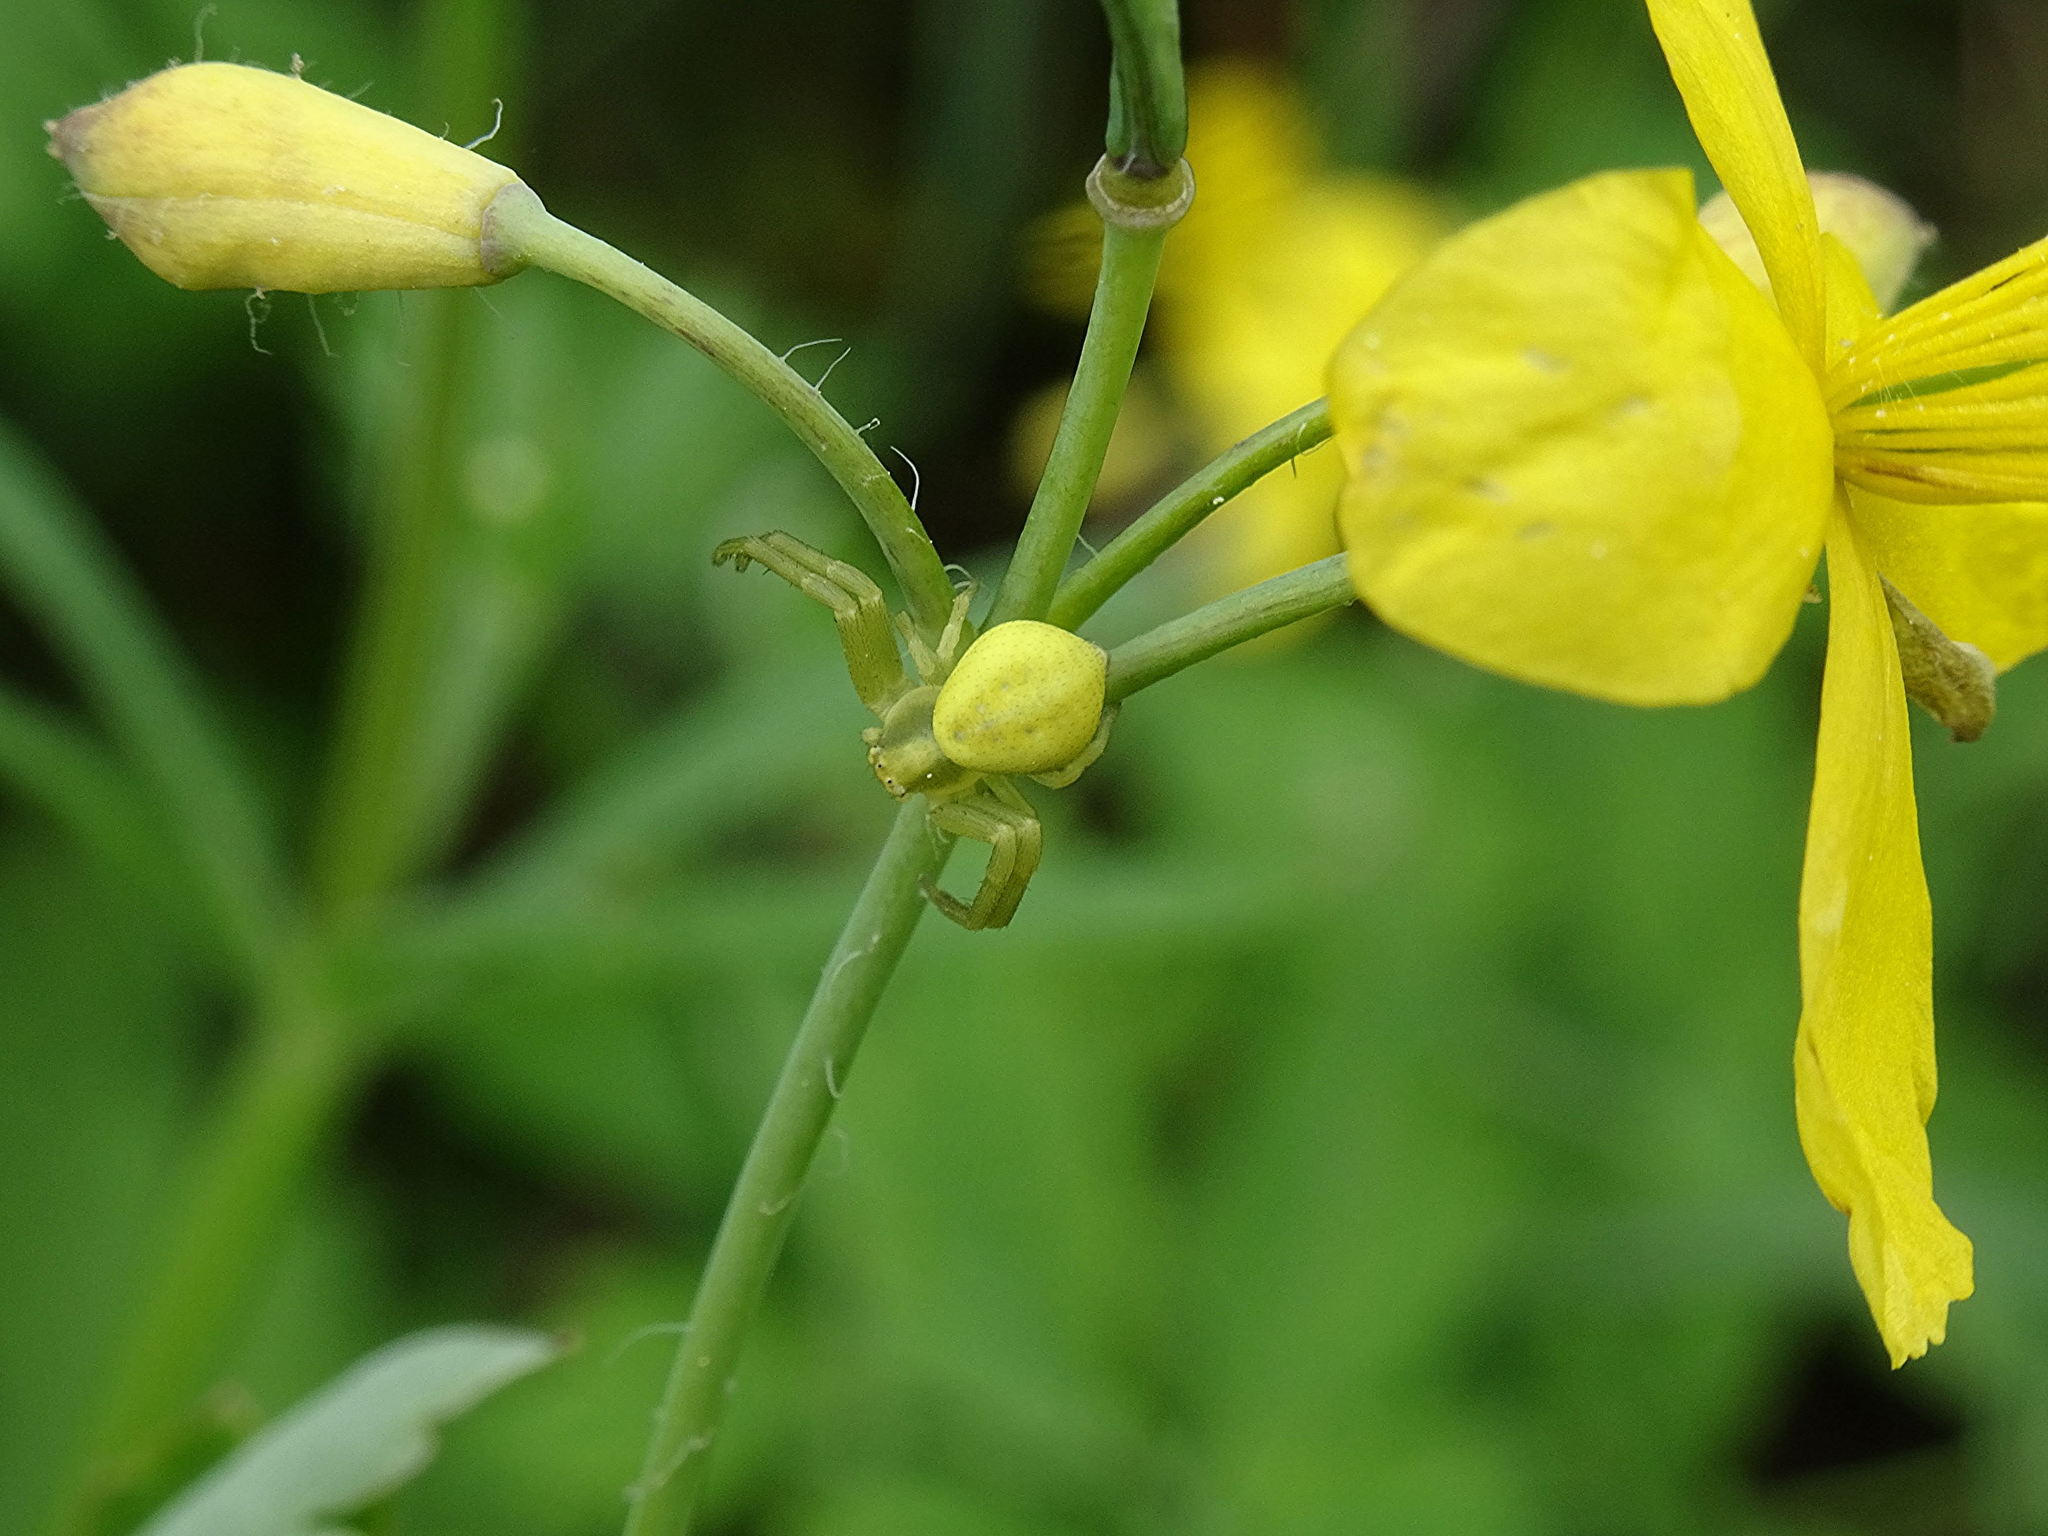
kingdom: Animalia
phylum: Arthropoda
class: Arachnida
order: Araneae
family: Thomisidae
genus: Misumena
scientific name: Misumena vatia
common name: Goldenrod crab spider
